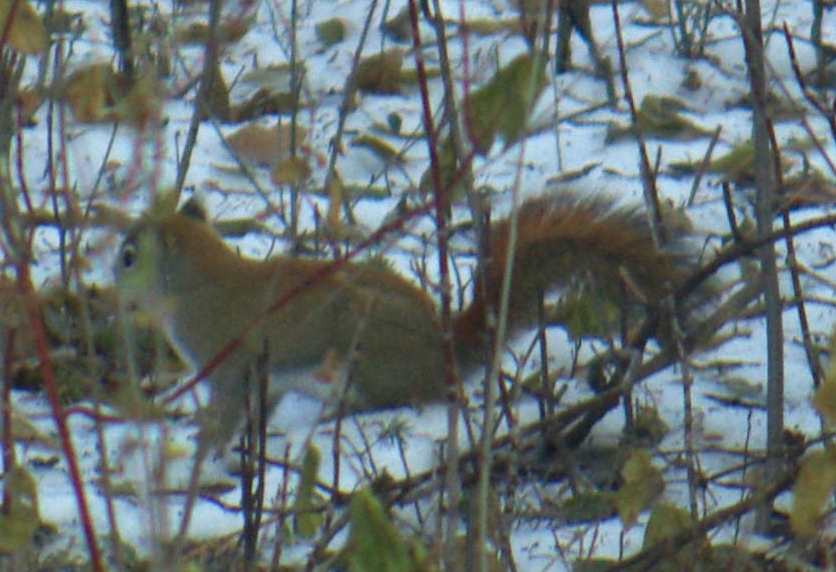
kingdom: Animalia
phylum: Chordata
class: Mammalia
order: Rodentia
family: Sciuridae
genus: Tamiasciurus
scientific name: Tamiasciurus hudsonicus
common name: Red squirrel
